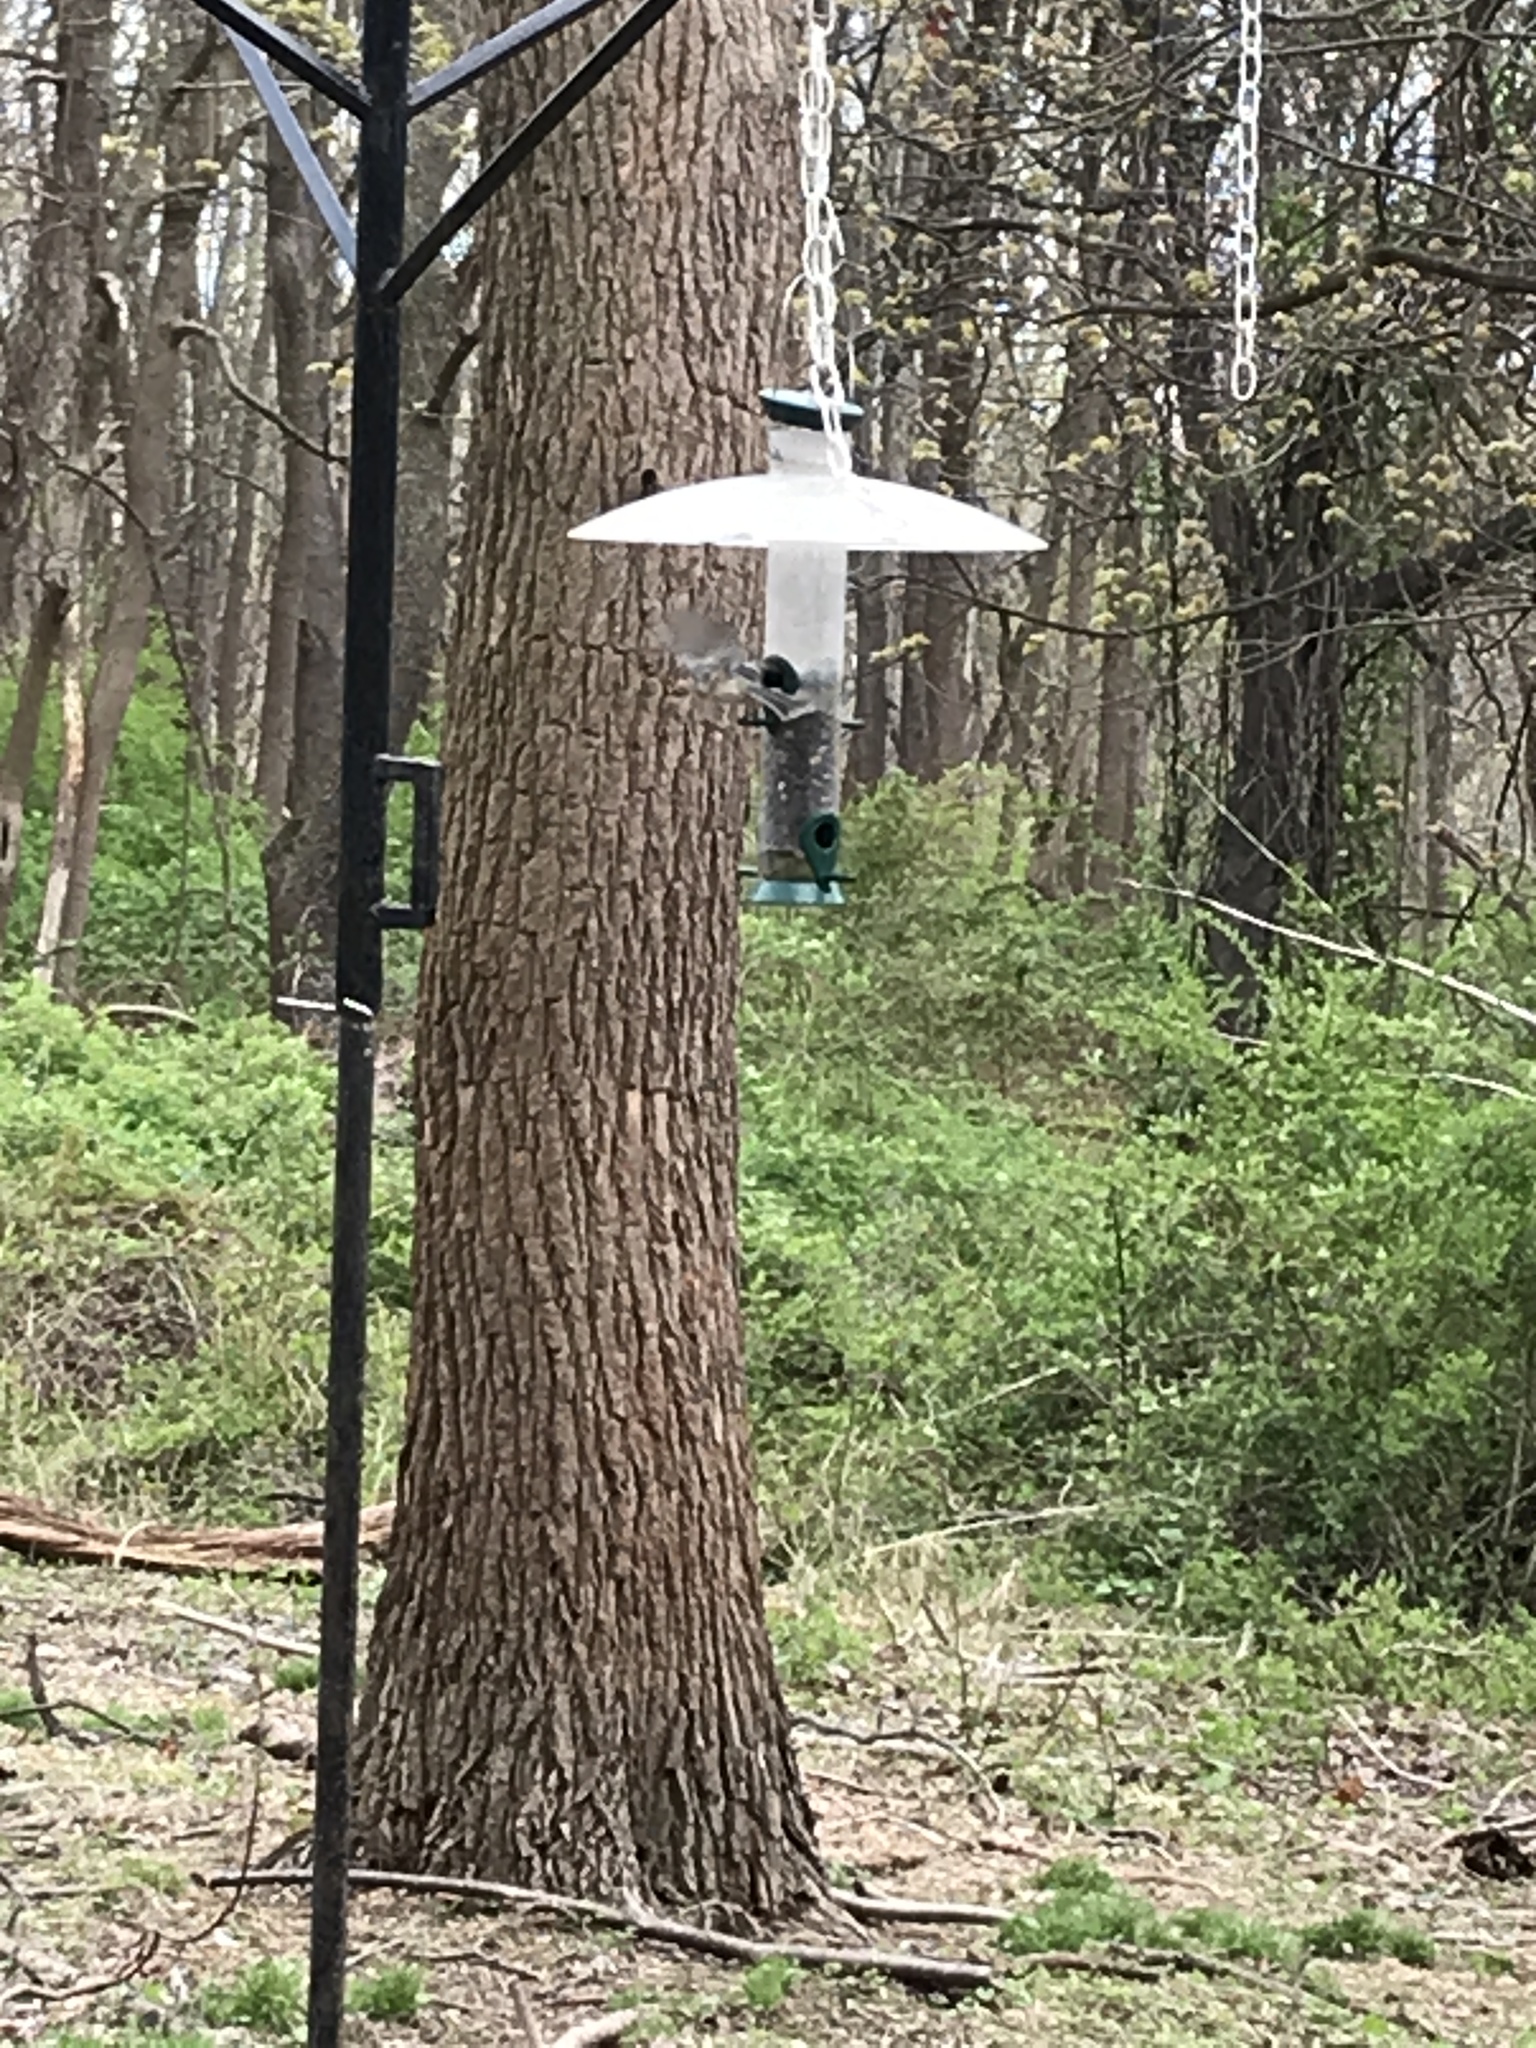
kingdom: Animalia
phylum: Chordata
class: Aves
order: Passeriformes
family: Paridae
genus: Poecile
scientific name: Poecile carolinensis
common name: Carolina chickadee
